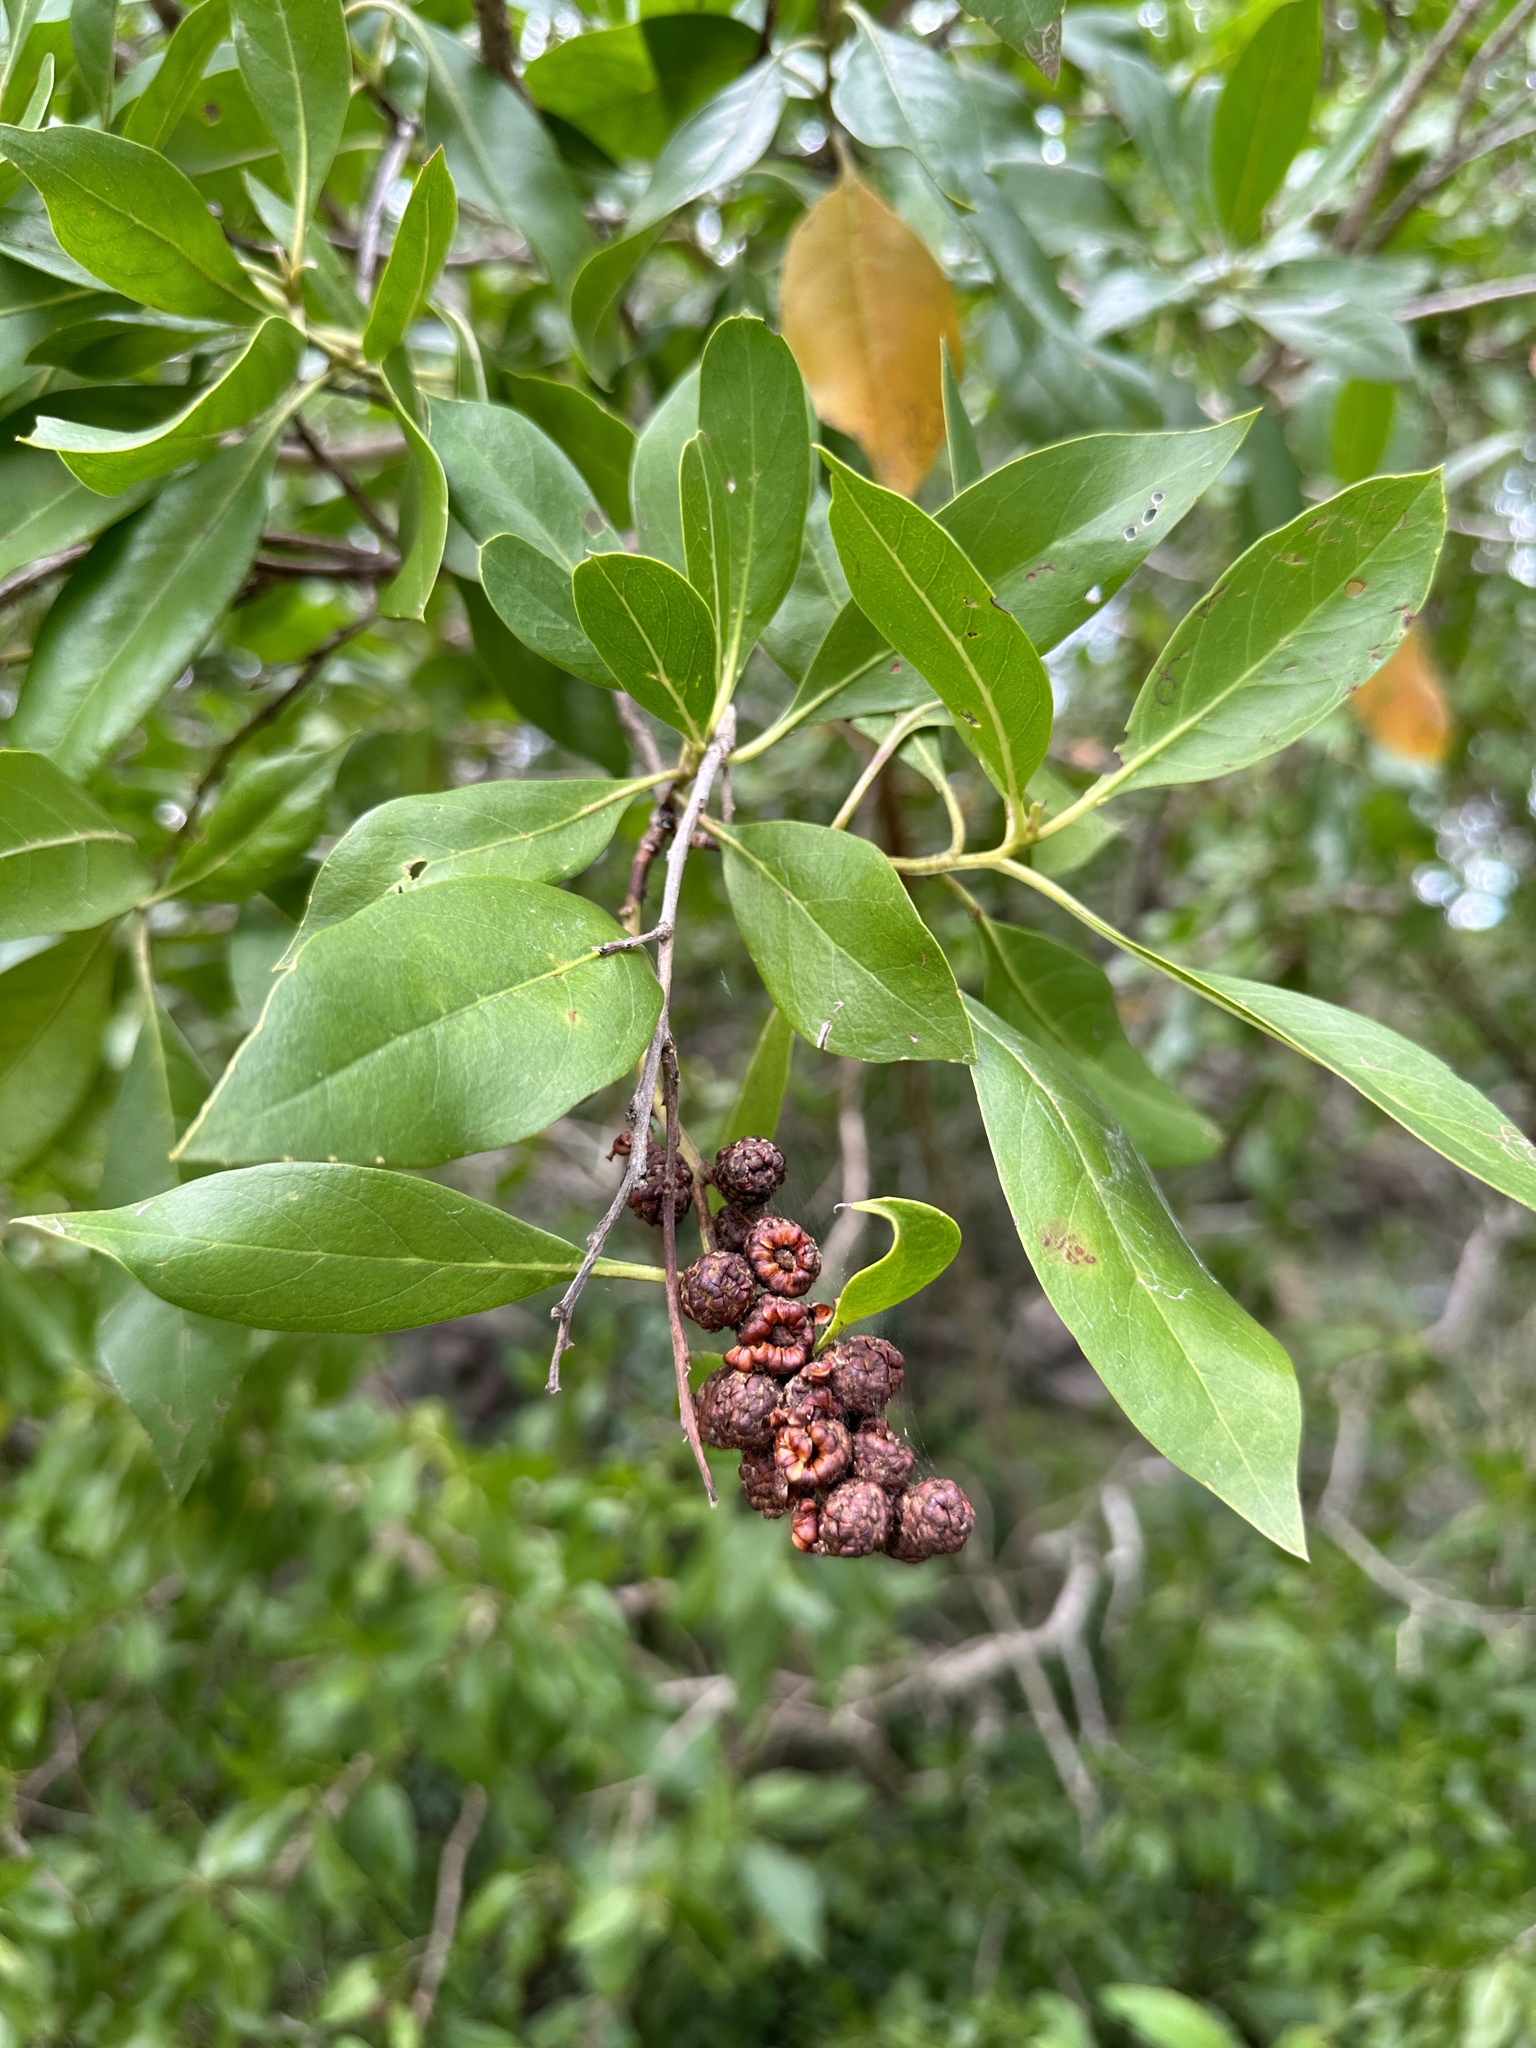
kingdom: Plantae
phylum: Tracheophyta
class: Magnoliopsida
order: Myrtales
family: Combretaceae
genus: Conocarpus
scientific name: Conocarpus erectus
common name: Button mangrove
